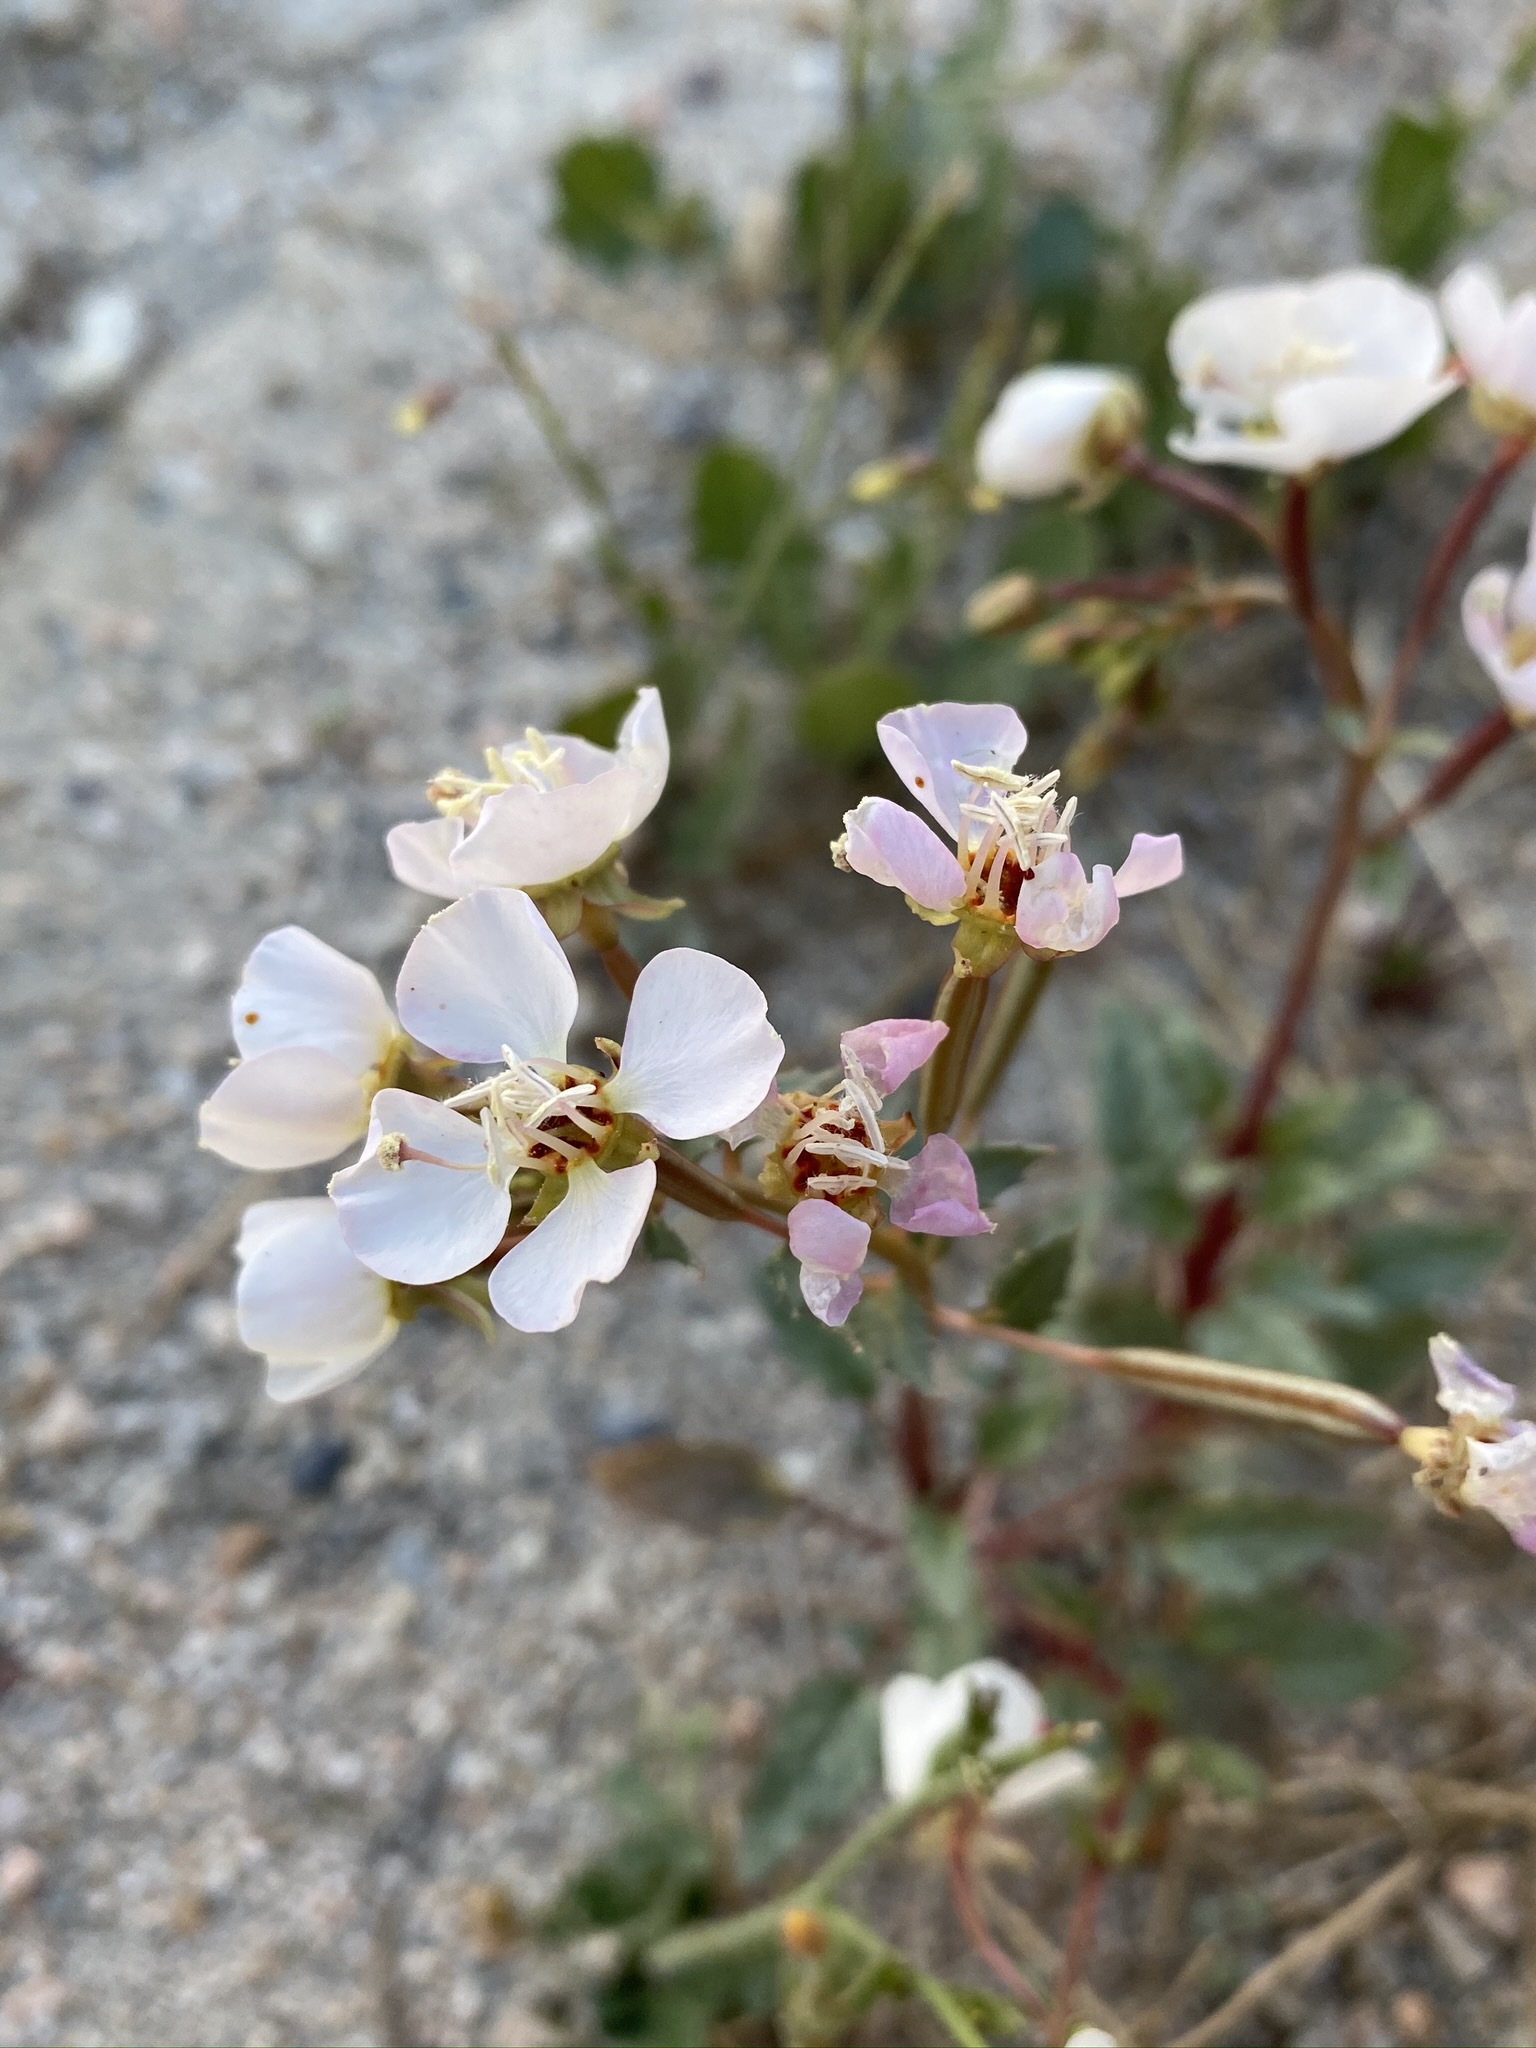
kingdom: Plantae
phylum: Tracheophyta
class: Magnoliopsida
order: Myrtales
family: Onagraceae
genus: Chylismia
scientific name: Chylismia claviformis
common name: Browneyes
